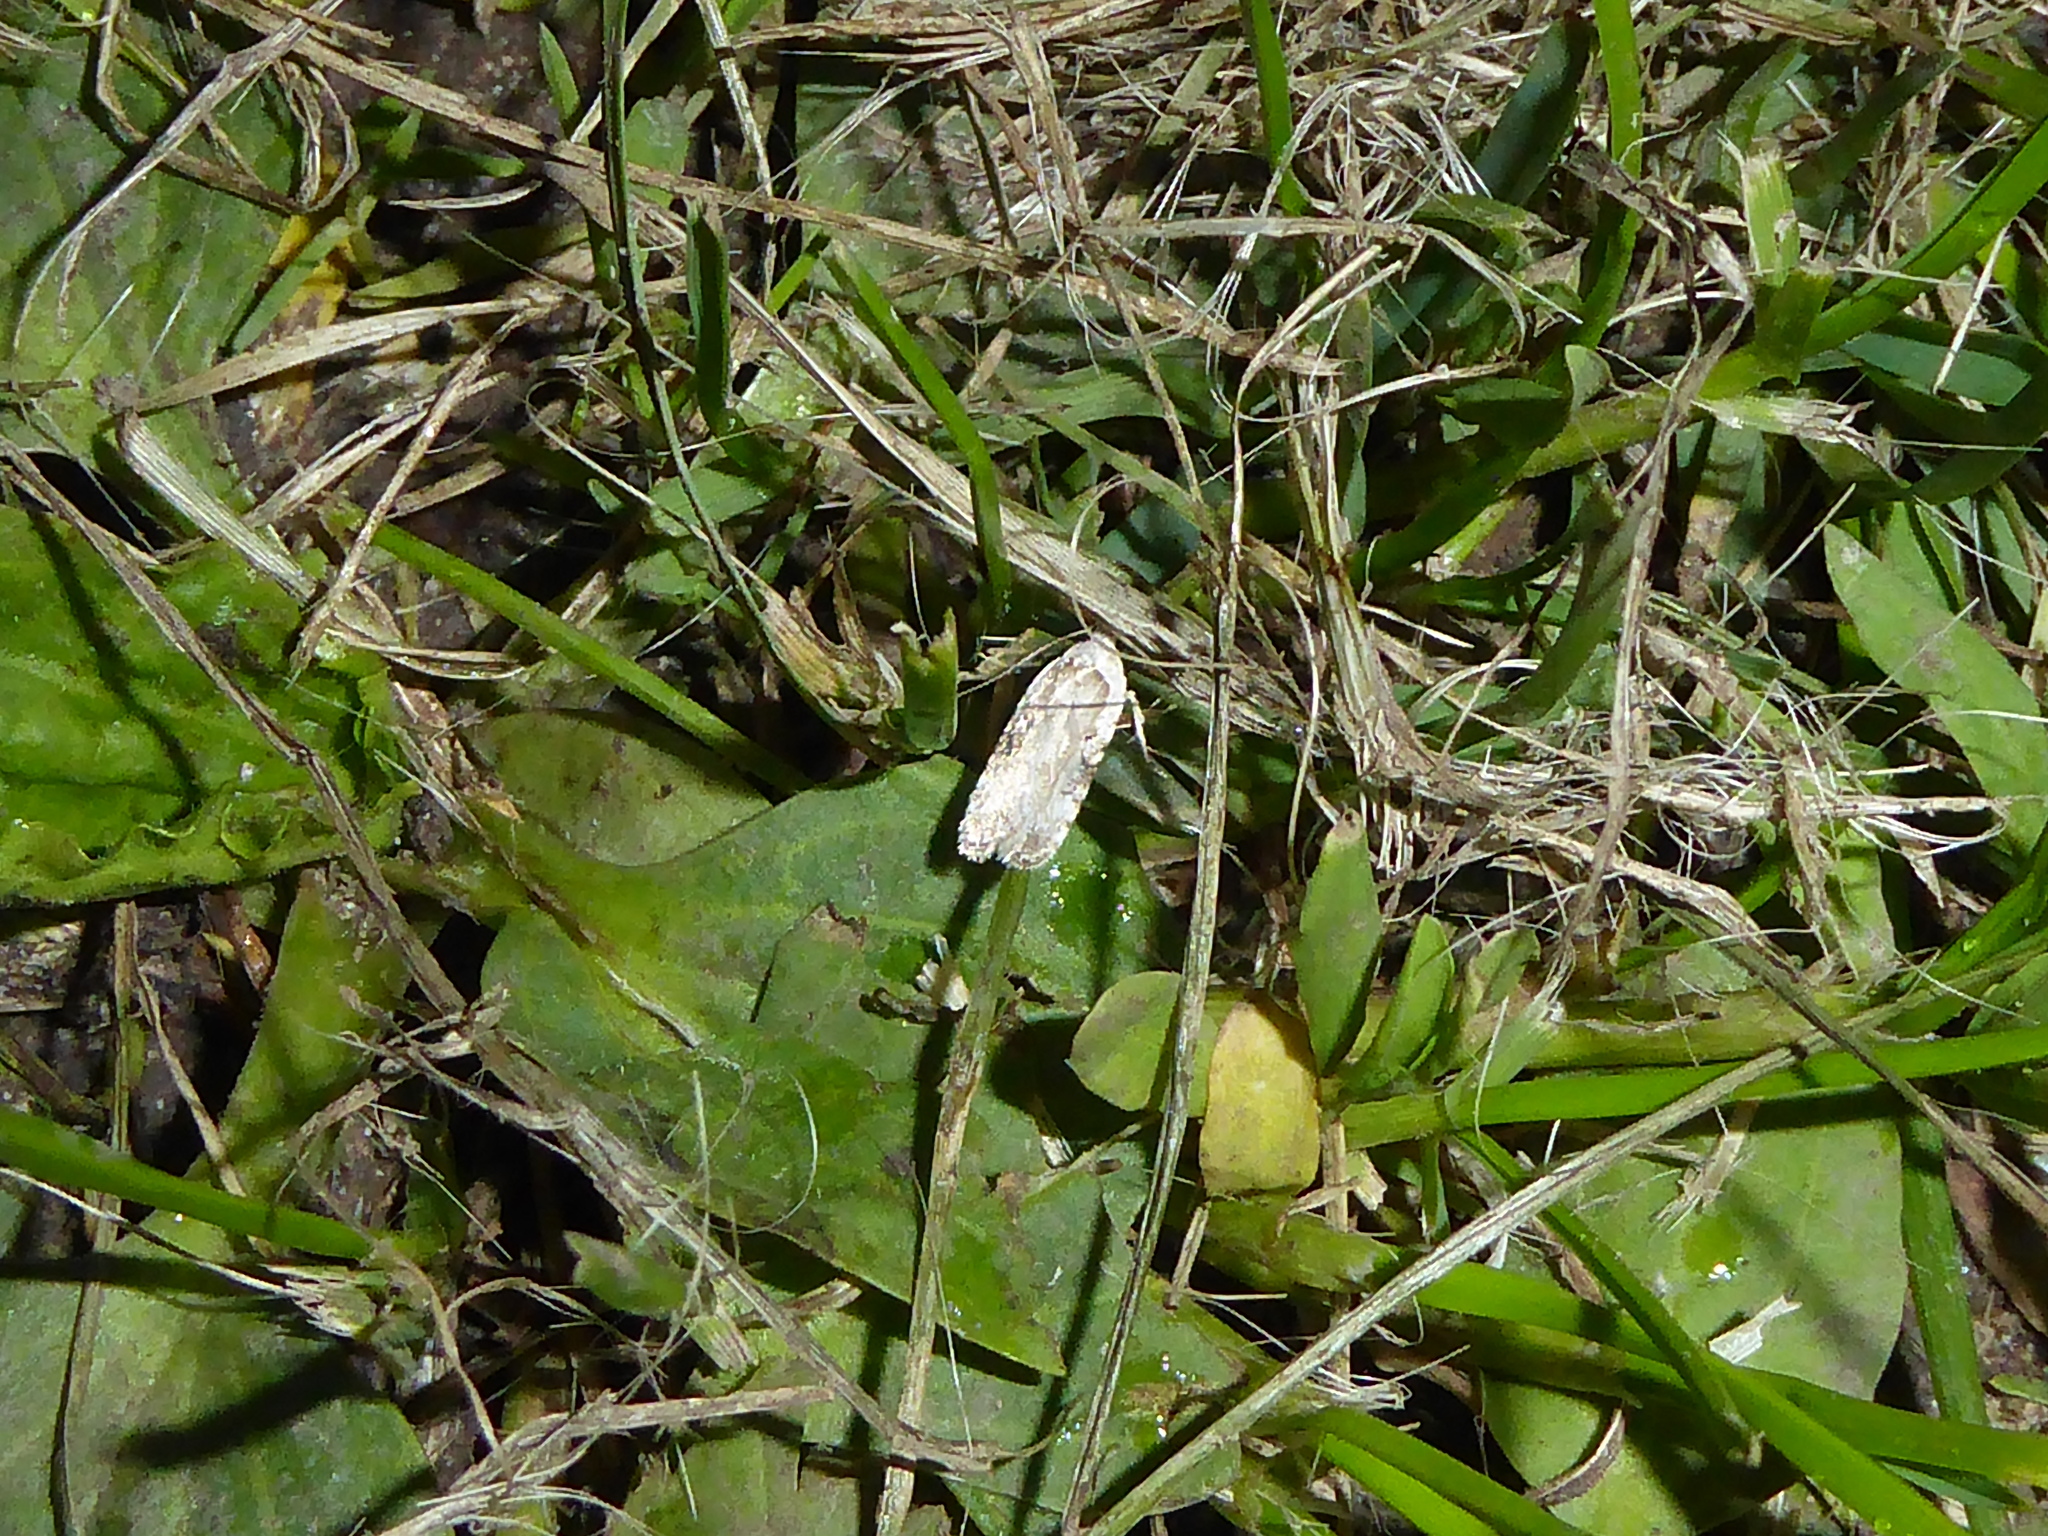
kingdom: Animalia
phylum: Arthropoda
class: Insecta
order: Lepidoptera
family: Depressariidae
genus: Agonopterix
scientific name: Agonopterix alstroemeriana
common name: Moth
